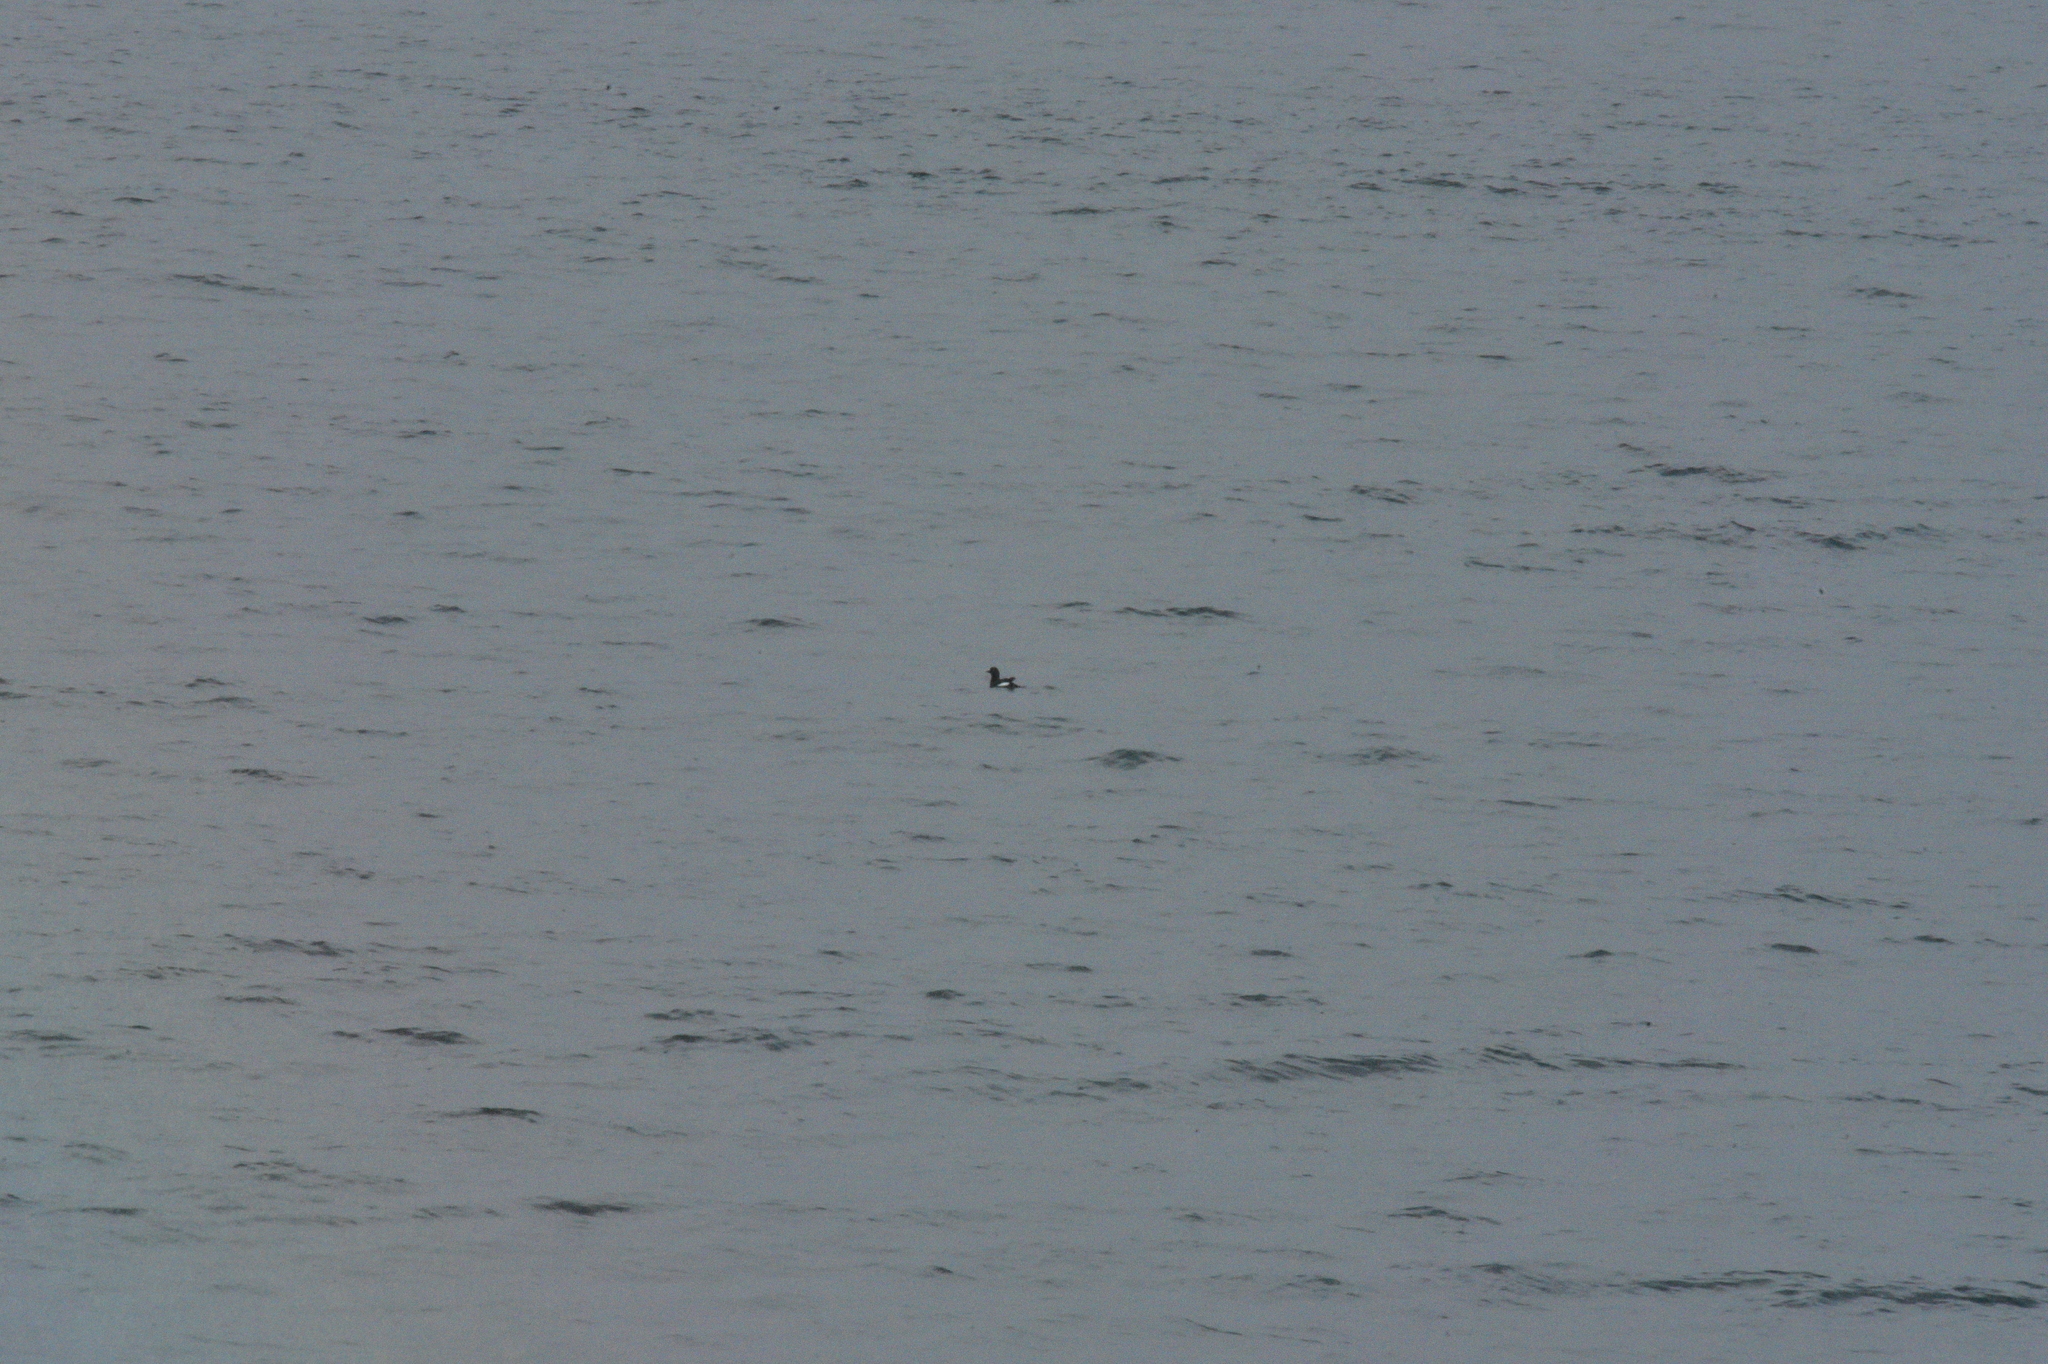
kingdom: Animalia
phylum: Chordata
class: Aves
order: Charadriiformes
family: Alcidae
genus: Cepphus
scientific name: Cepphus columba
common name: Pigeon guillemot
